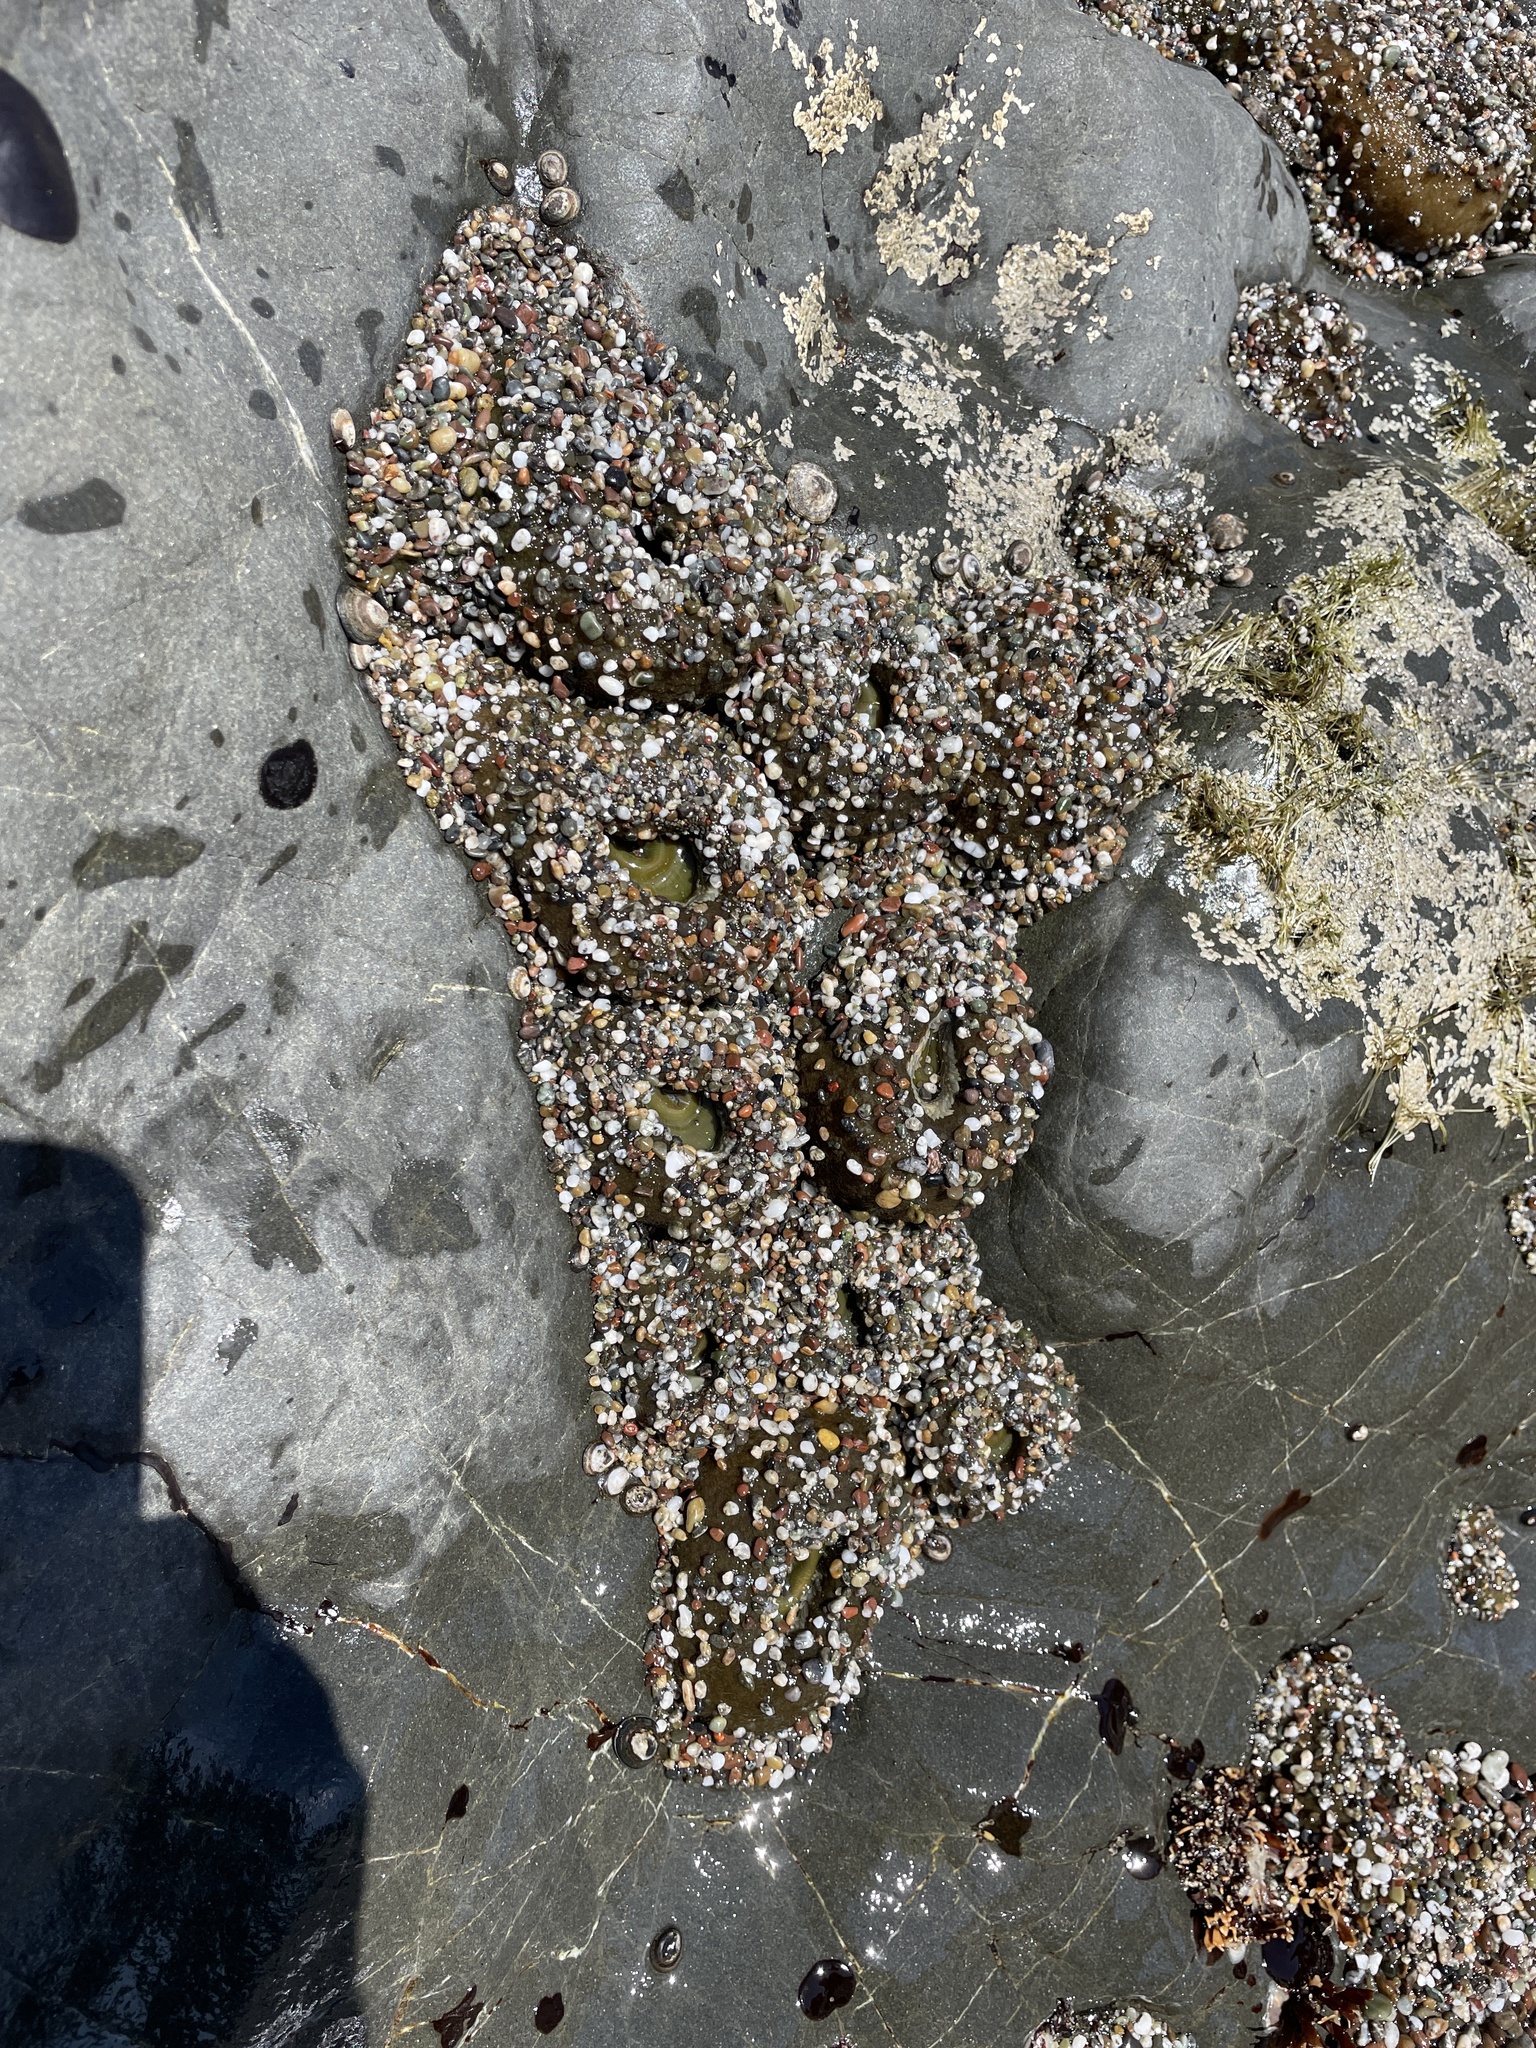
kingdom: Animalia
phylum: Cnidaria
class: Anthozoa
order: Actiniaria
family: Actiniidae
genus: Anthopleura
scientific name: Anthopleura elegantissima
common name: Clonal anemone
